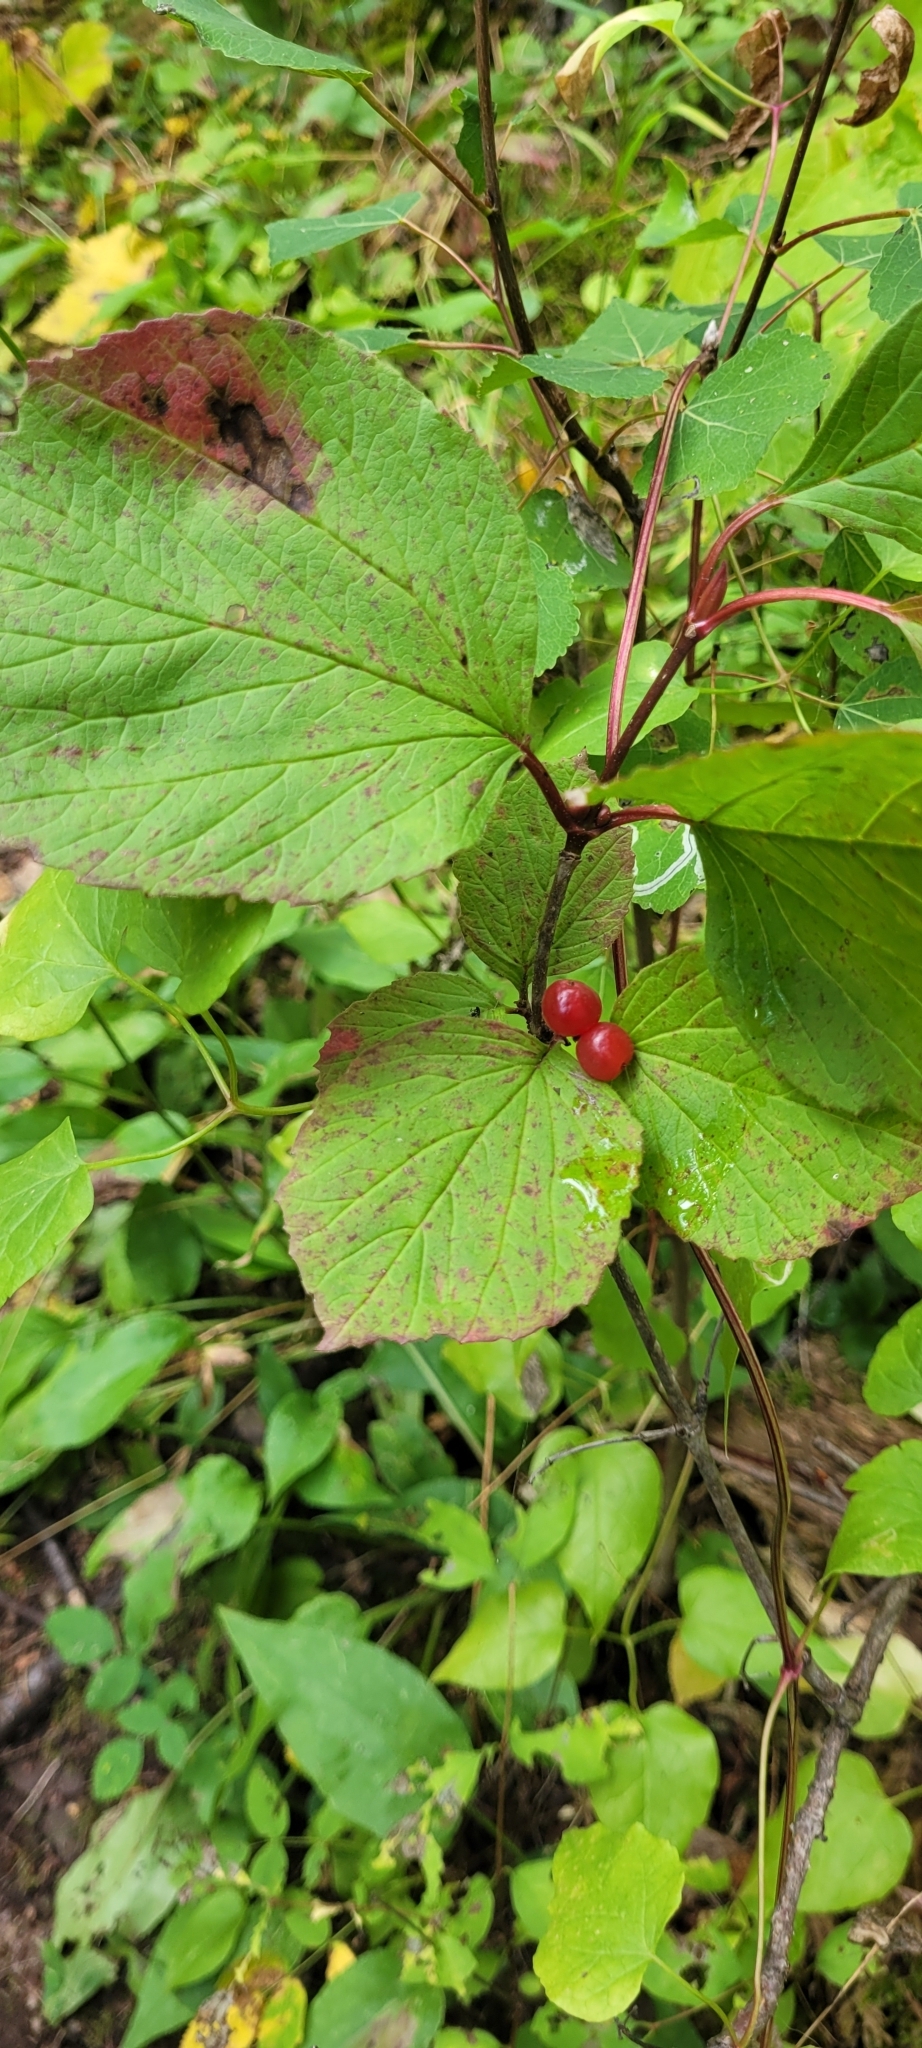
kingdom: Plantae
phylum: Tracheophyta
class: Magnoliopsida
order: Dipsacales
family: Viburnaceae
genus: Viburnum
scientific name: Viburnum edule
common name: Mooseberry
